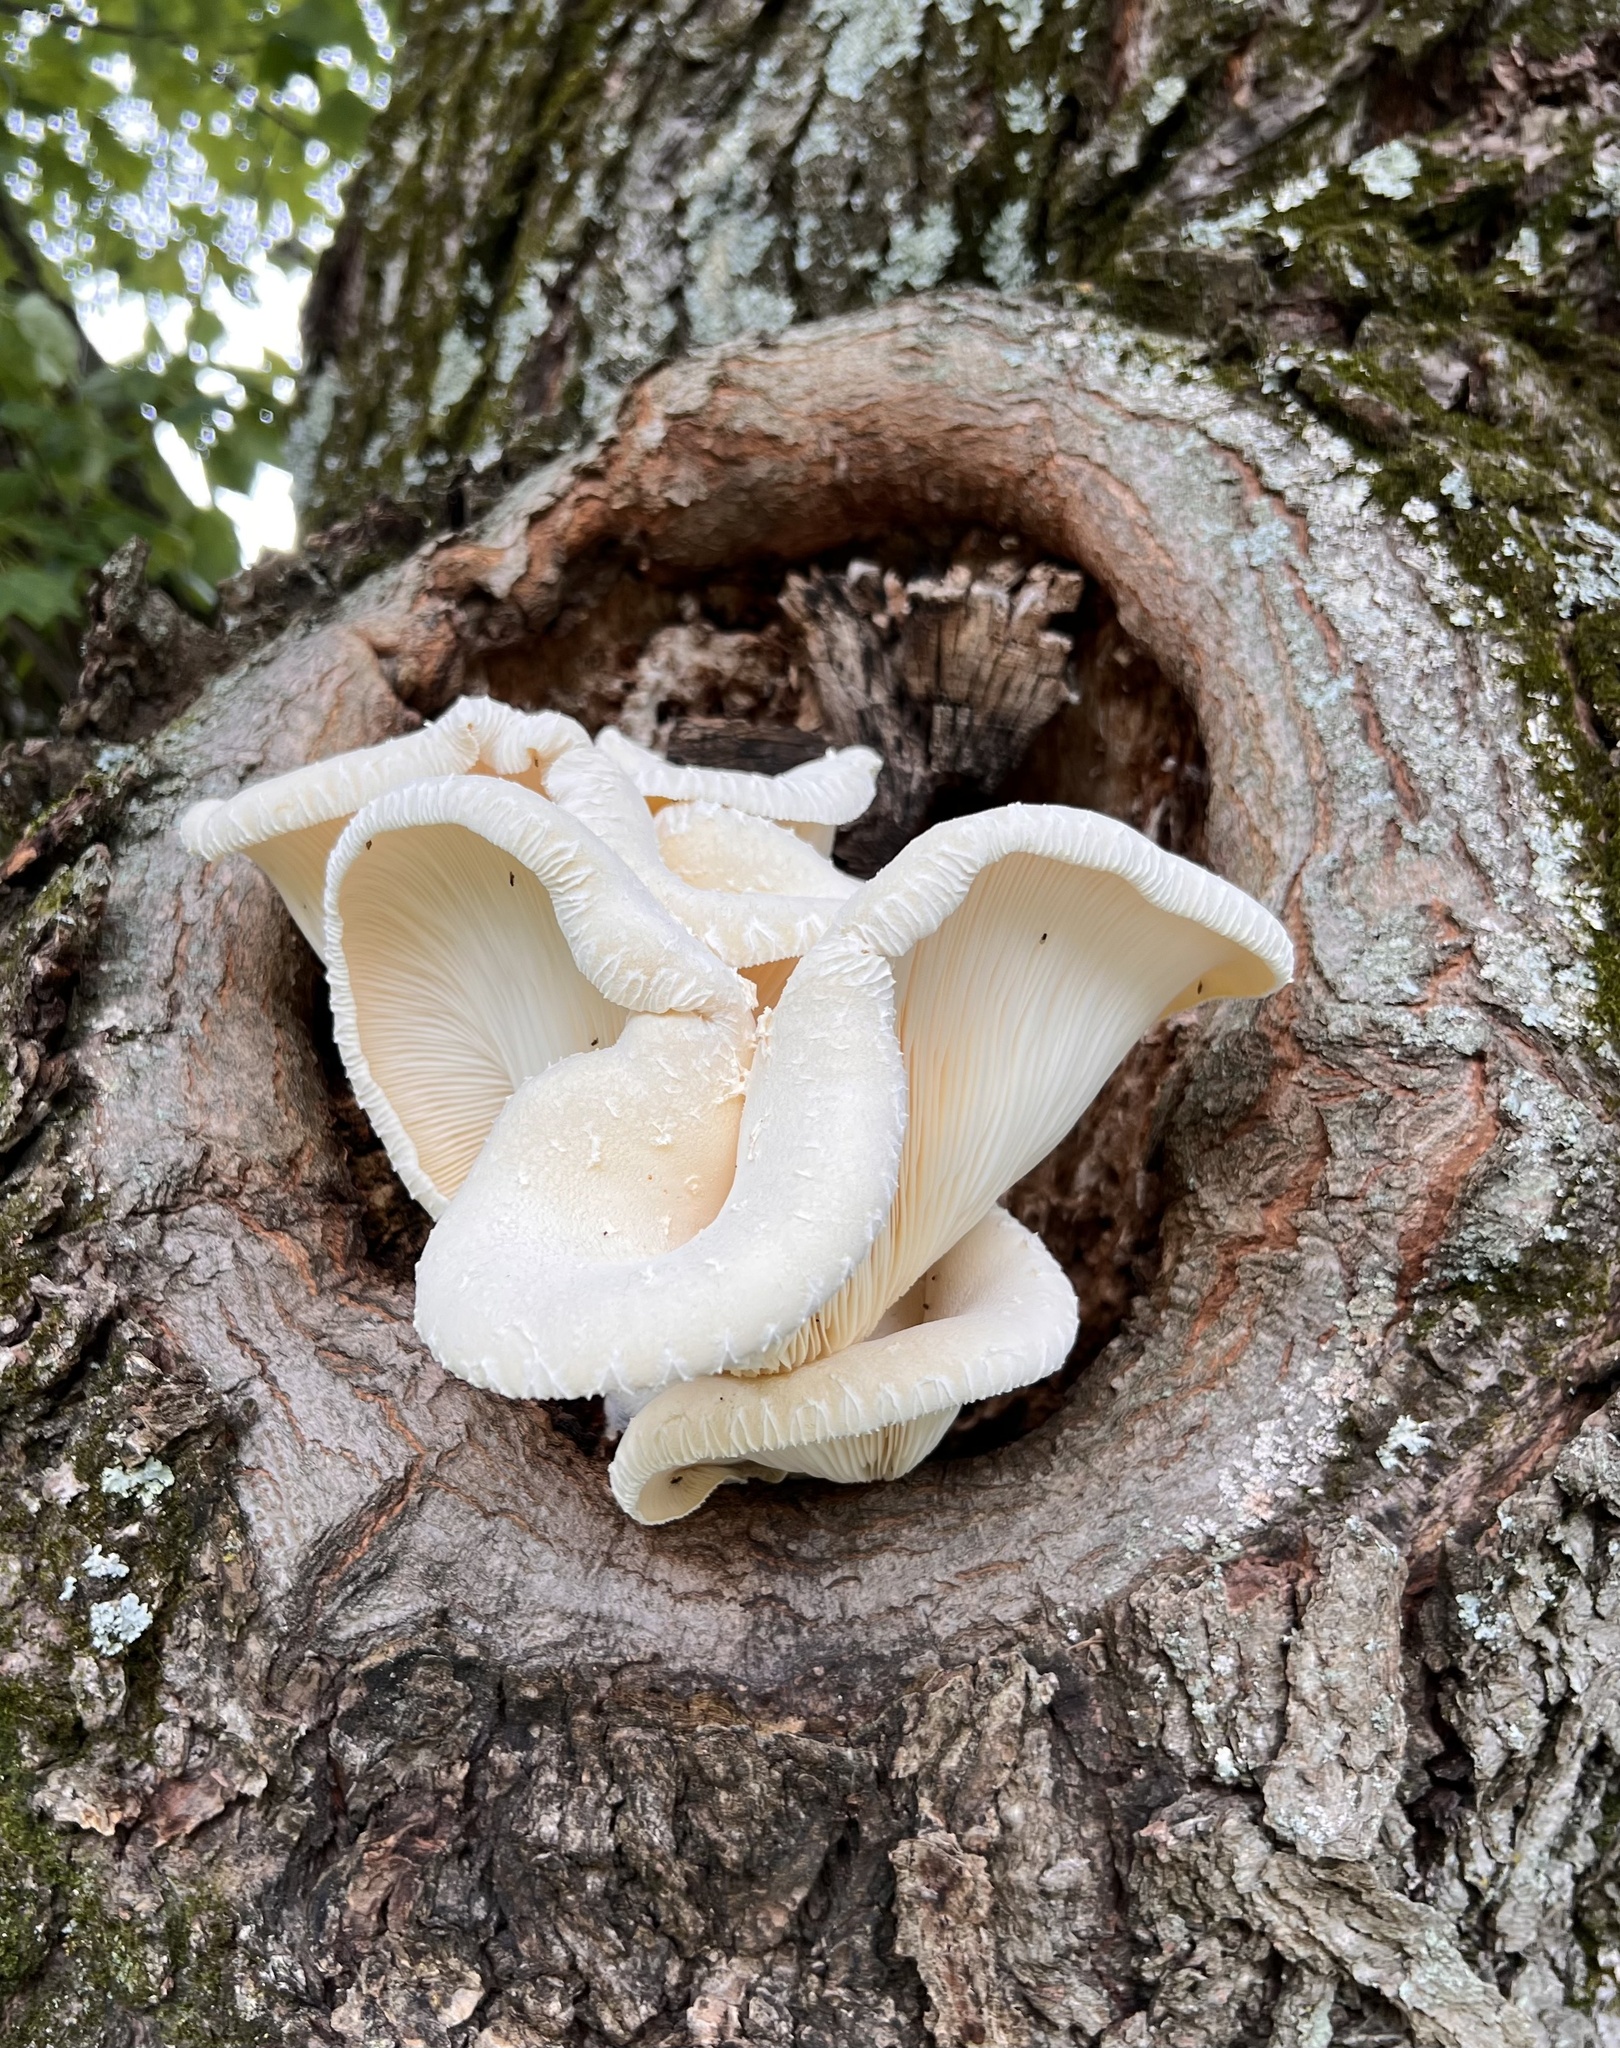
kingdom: Fungi
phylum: Basidiomycota
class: Agaricomycetes
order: Polyporales
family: Polyporaceae
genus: Lentinus
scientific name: Lentinus levis
